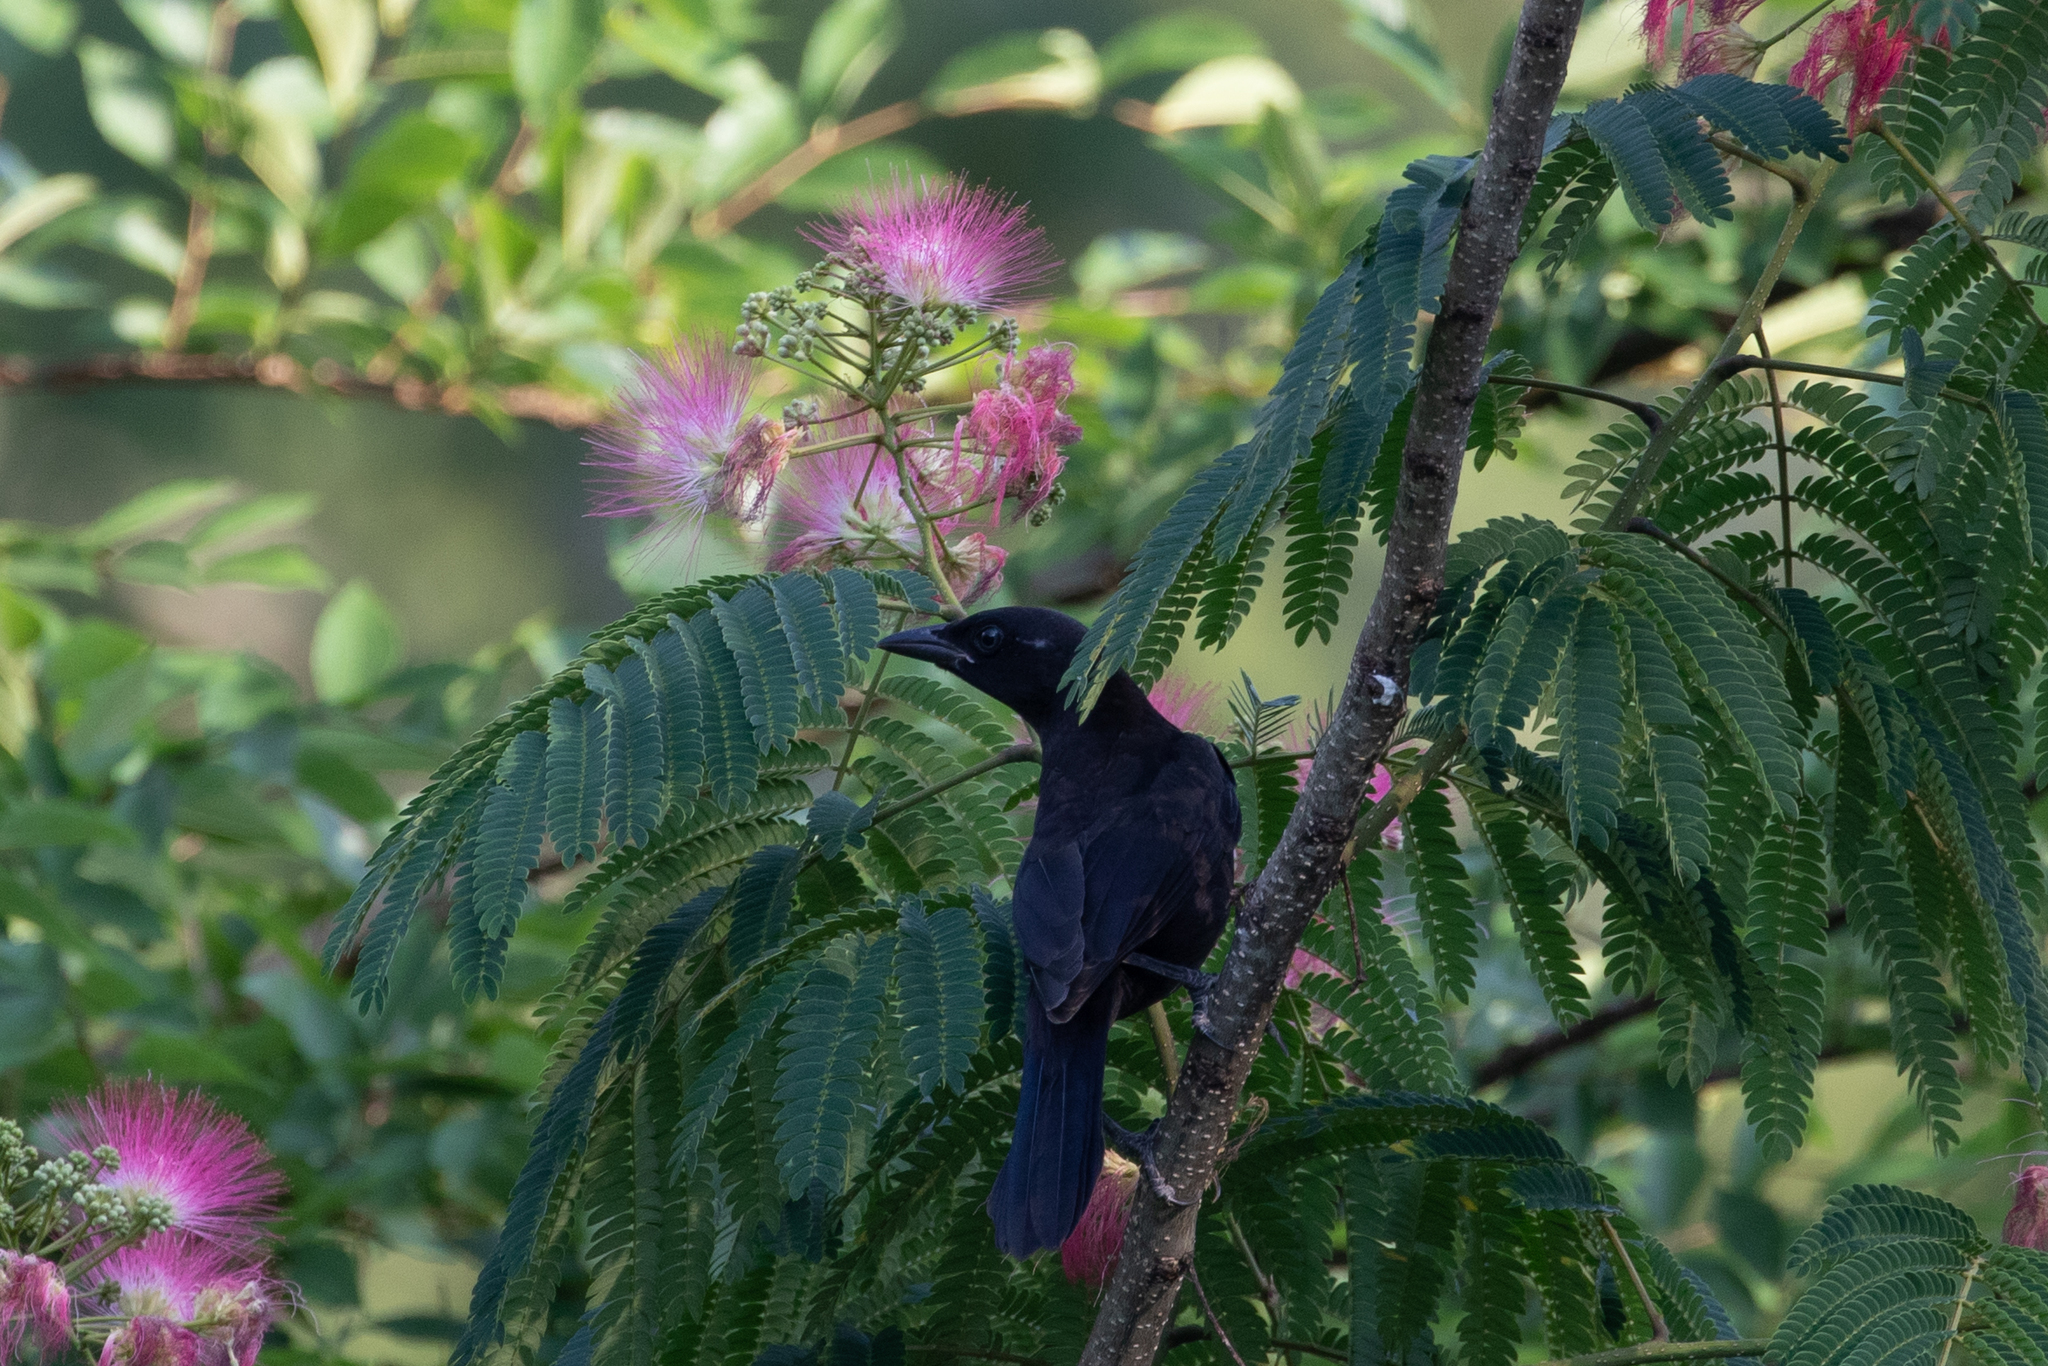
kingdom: Animalia
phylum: Chordata
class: Aves
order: Passeriformes
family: Icteridae
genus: Quiscalus
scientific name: Quiscalus quiscula
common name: Common grackle
